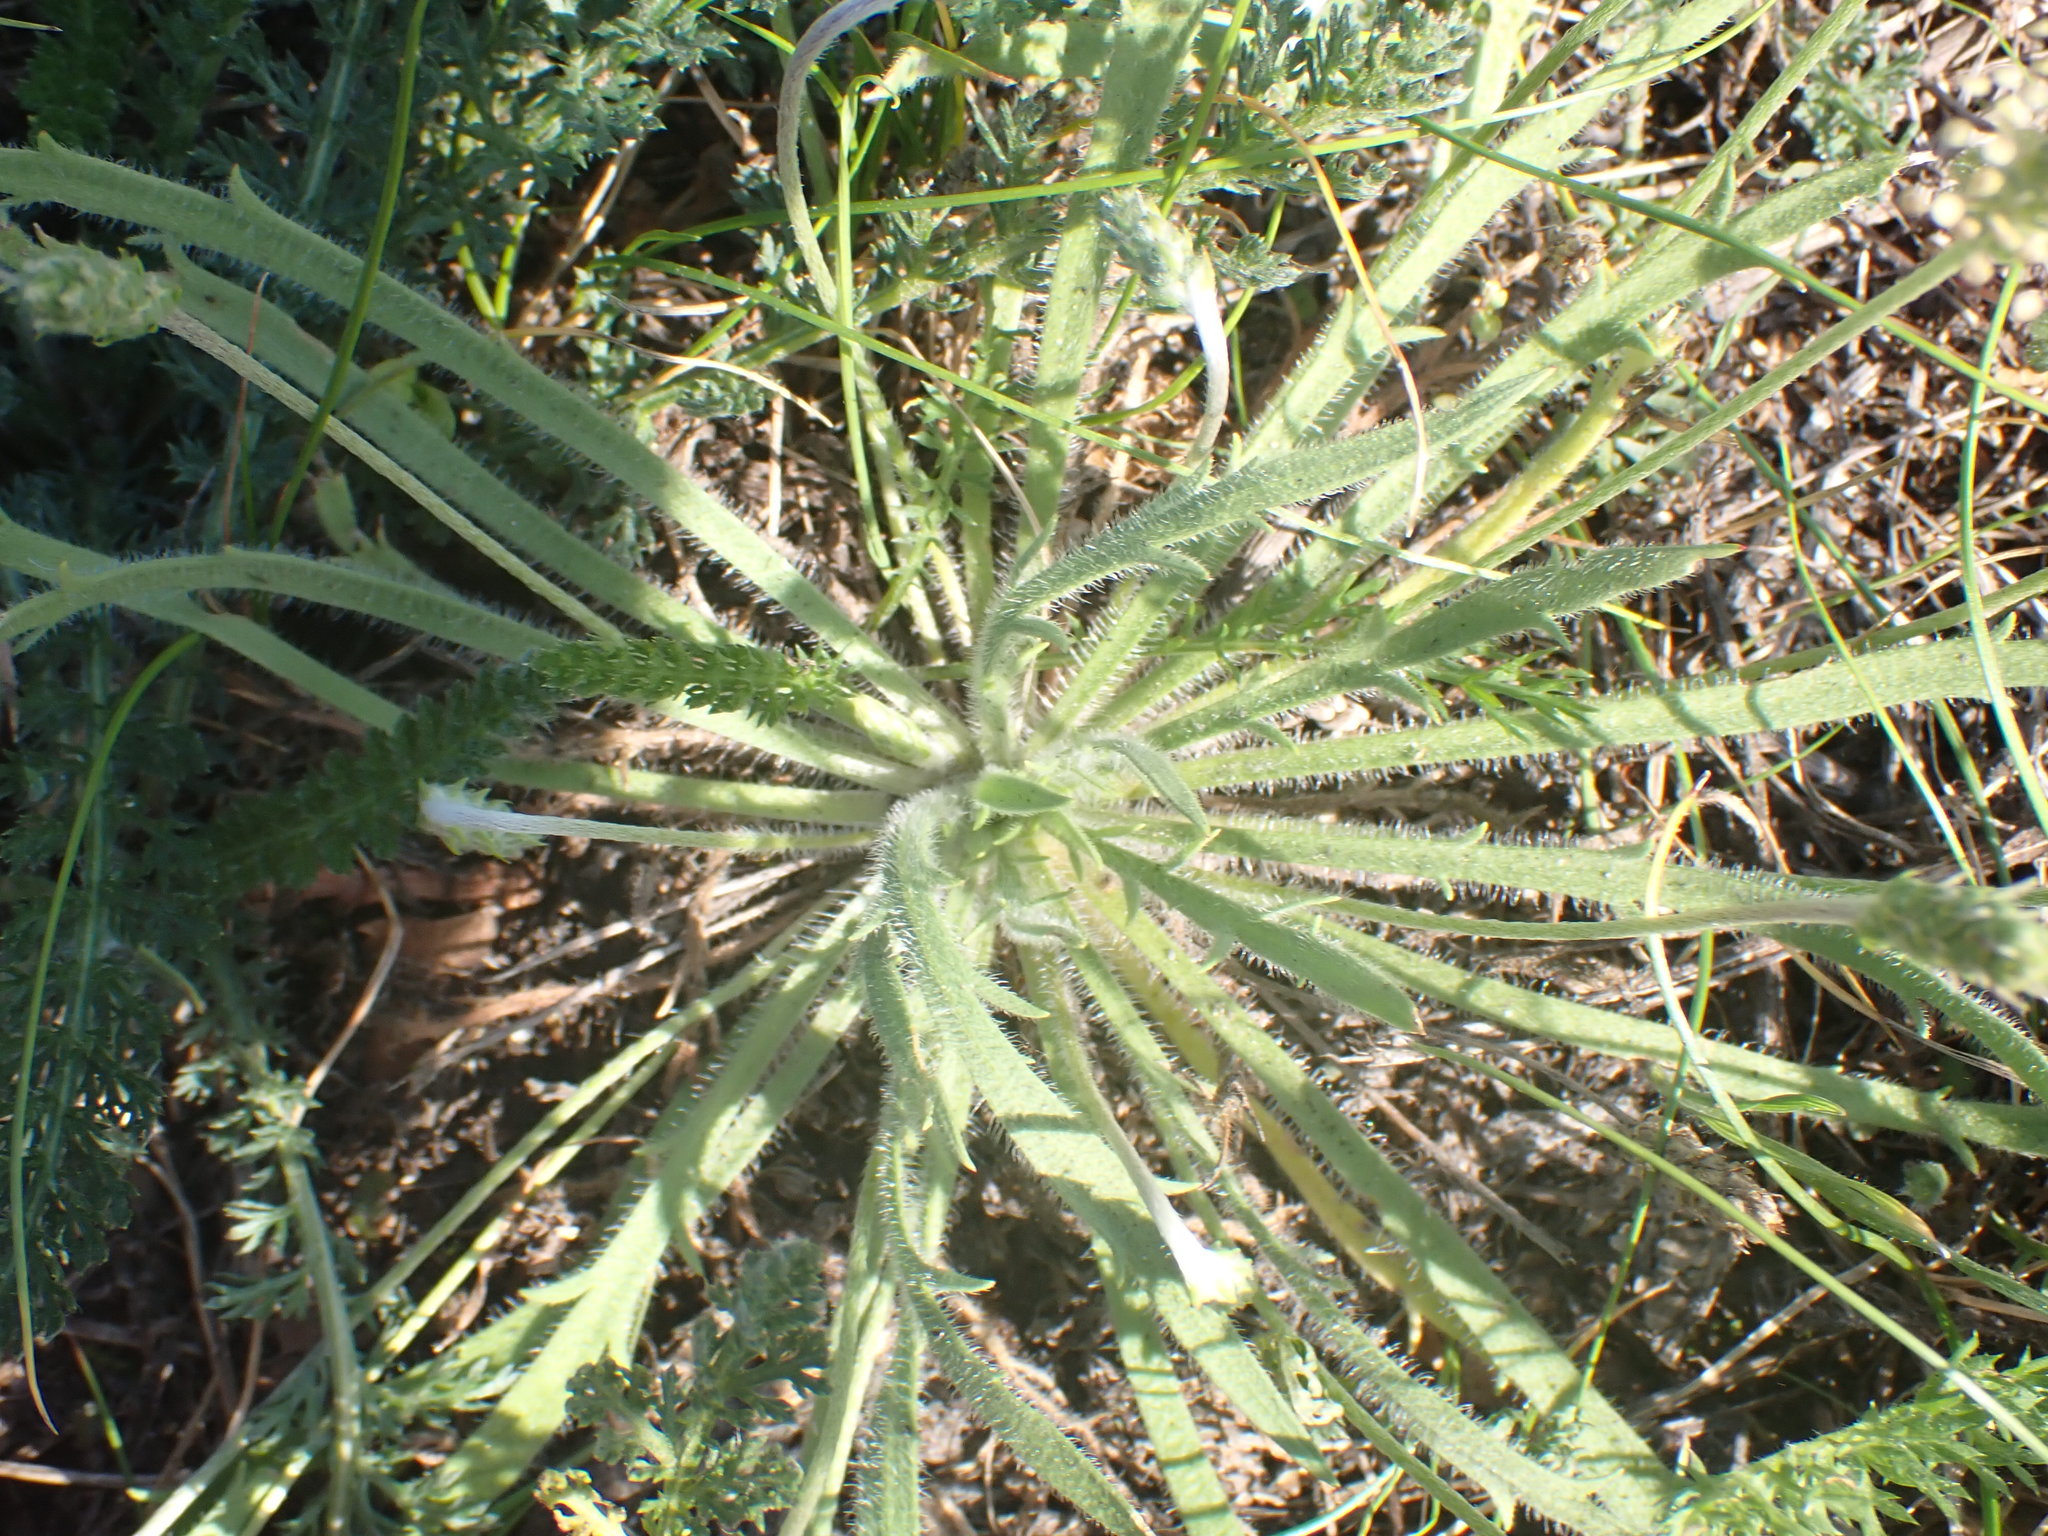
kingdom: Plantae
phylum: Tracheophyta
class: Magnoliopsida
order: Lamiales
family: Plantaginaceae
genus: Plantago
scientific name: Plantago coronopus
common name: Buck's-horn plantain
